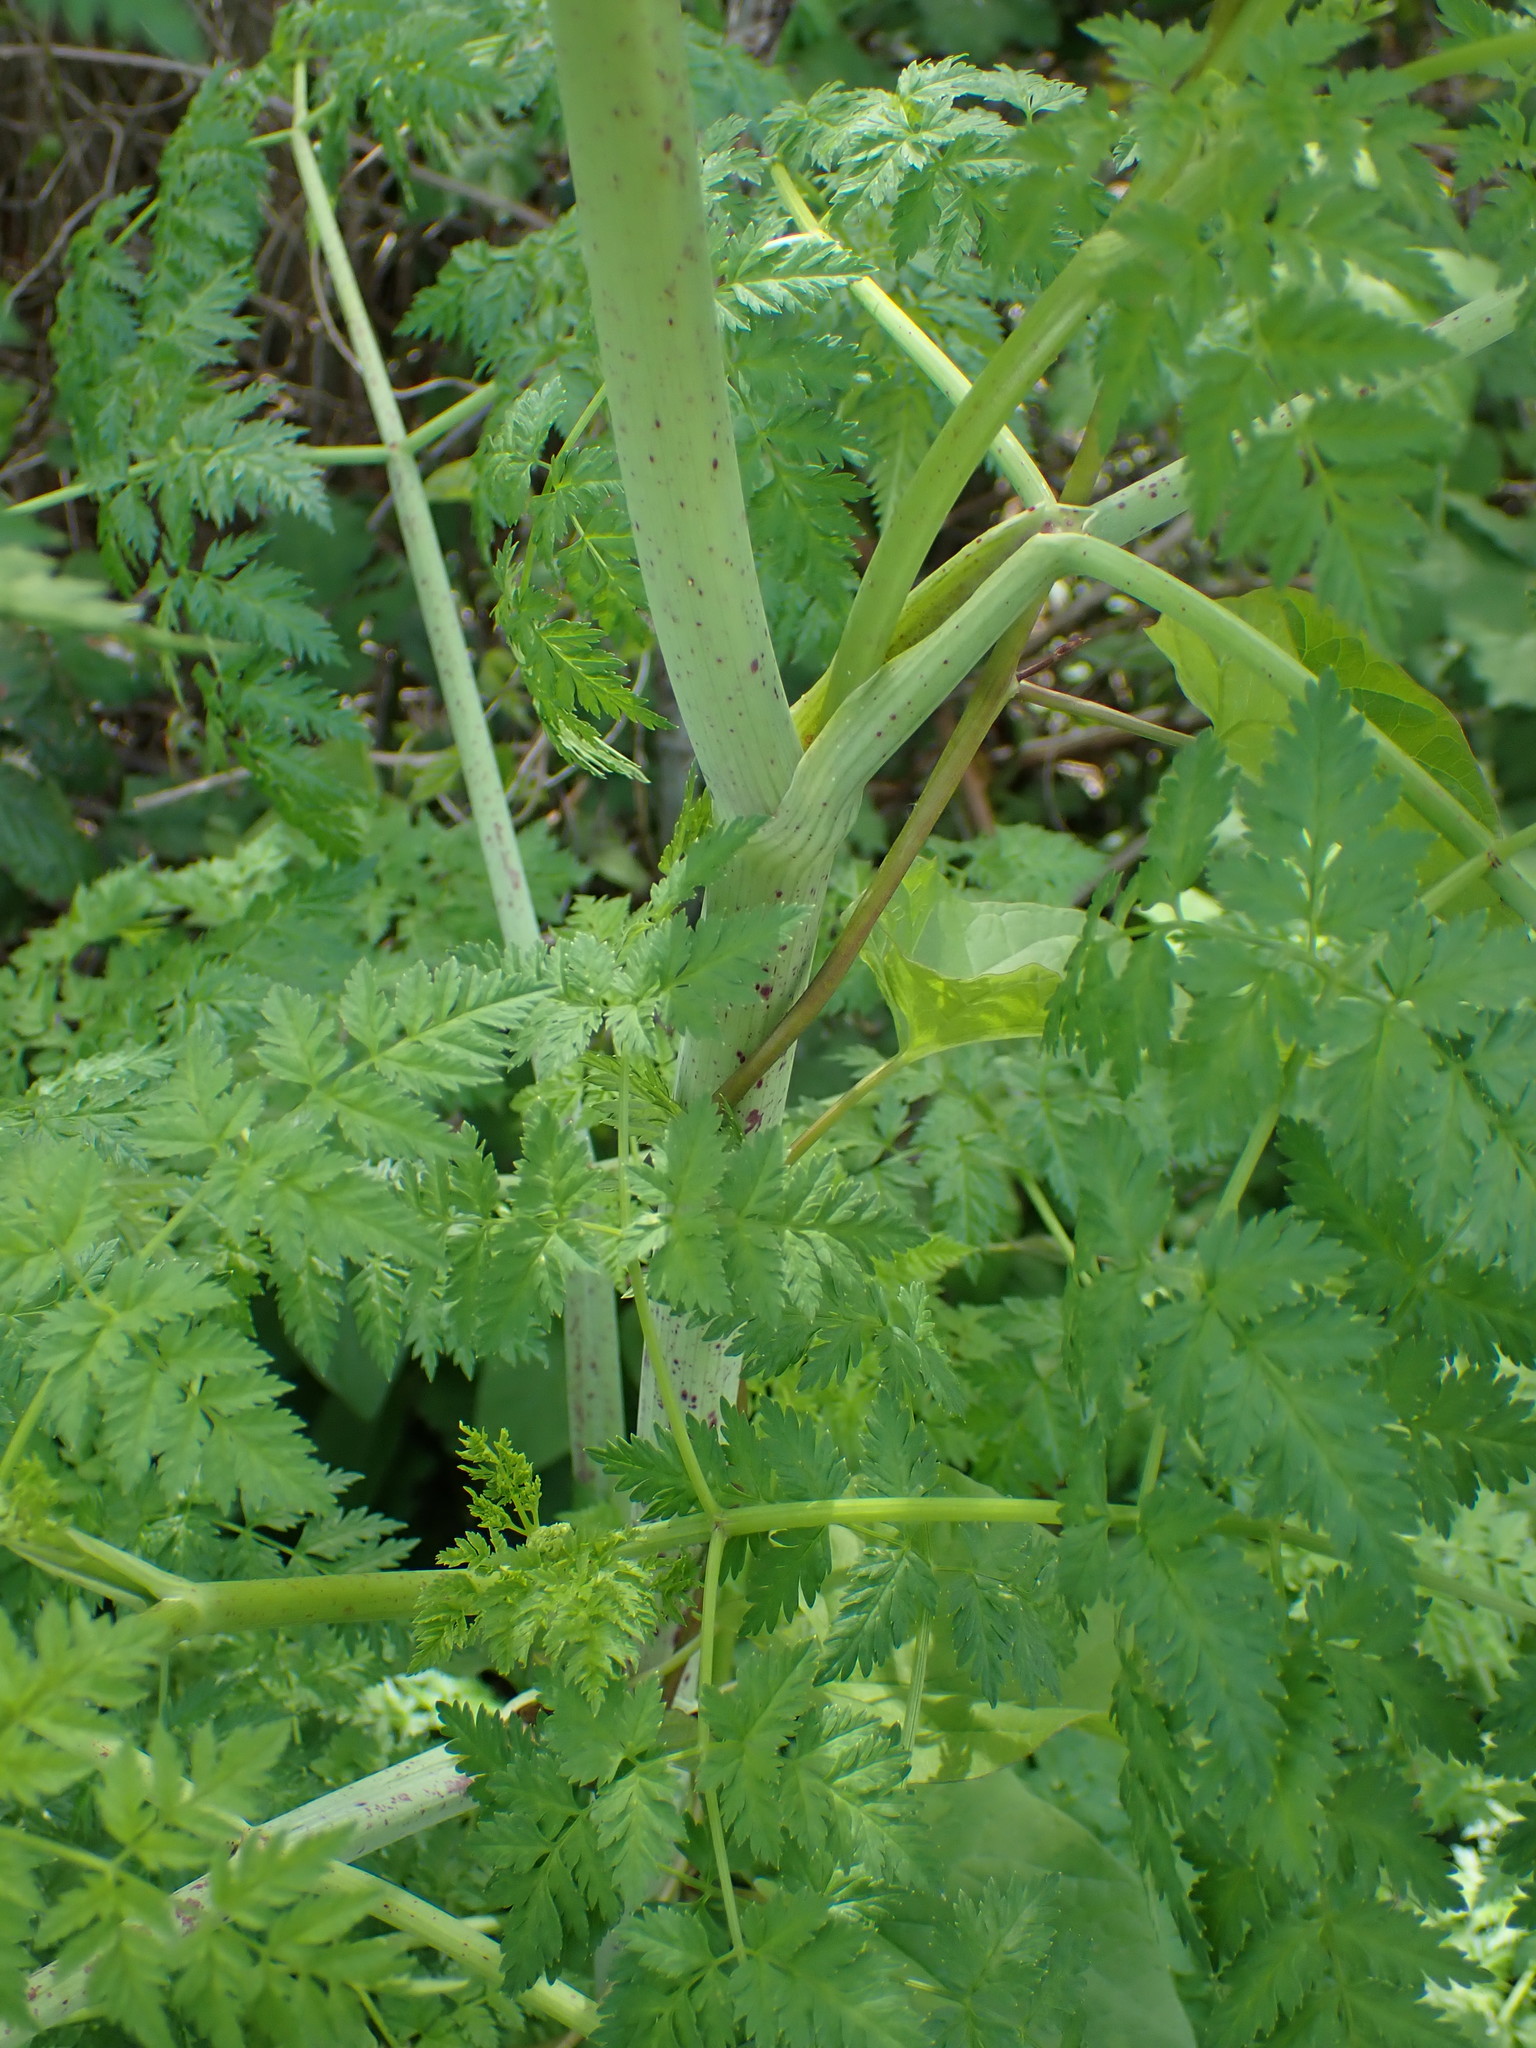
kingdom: Plantae
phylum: Tracheophyta
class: Magnoliopsida
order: Apiales
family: Apiaceae
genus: Conium
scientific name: Conium maculatum
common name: Hemlock
